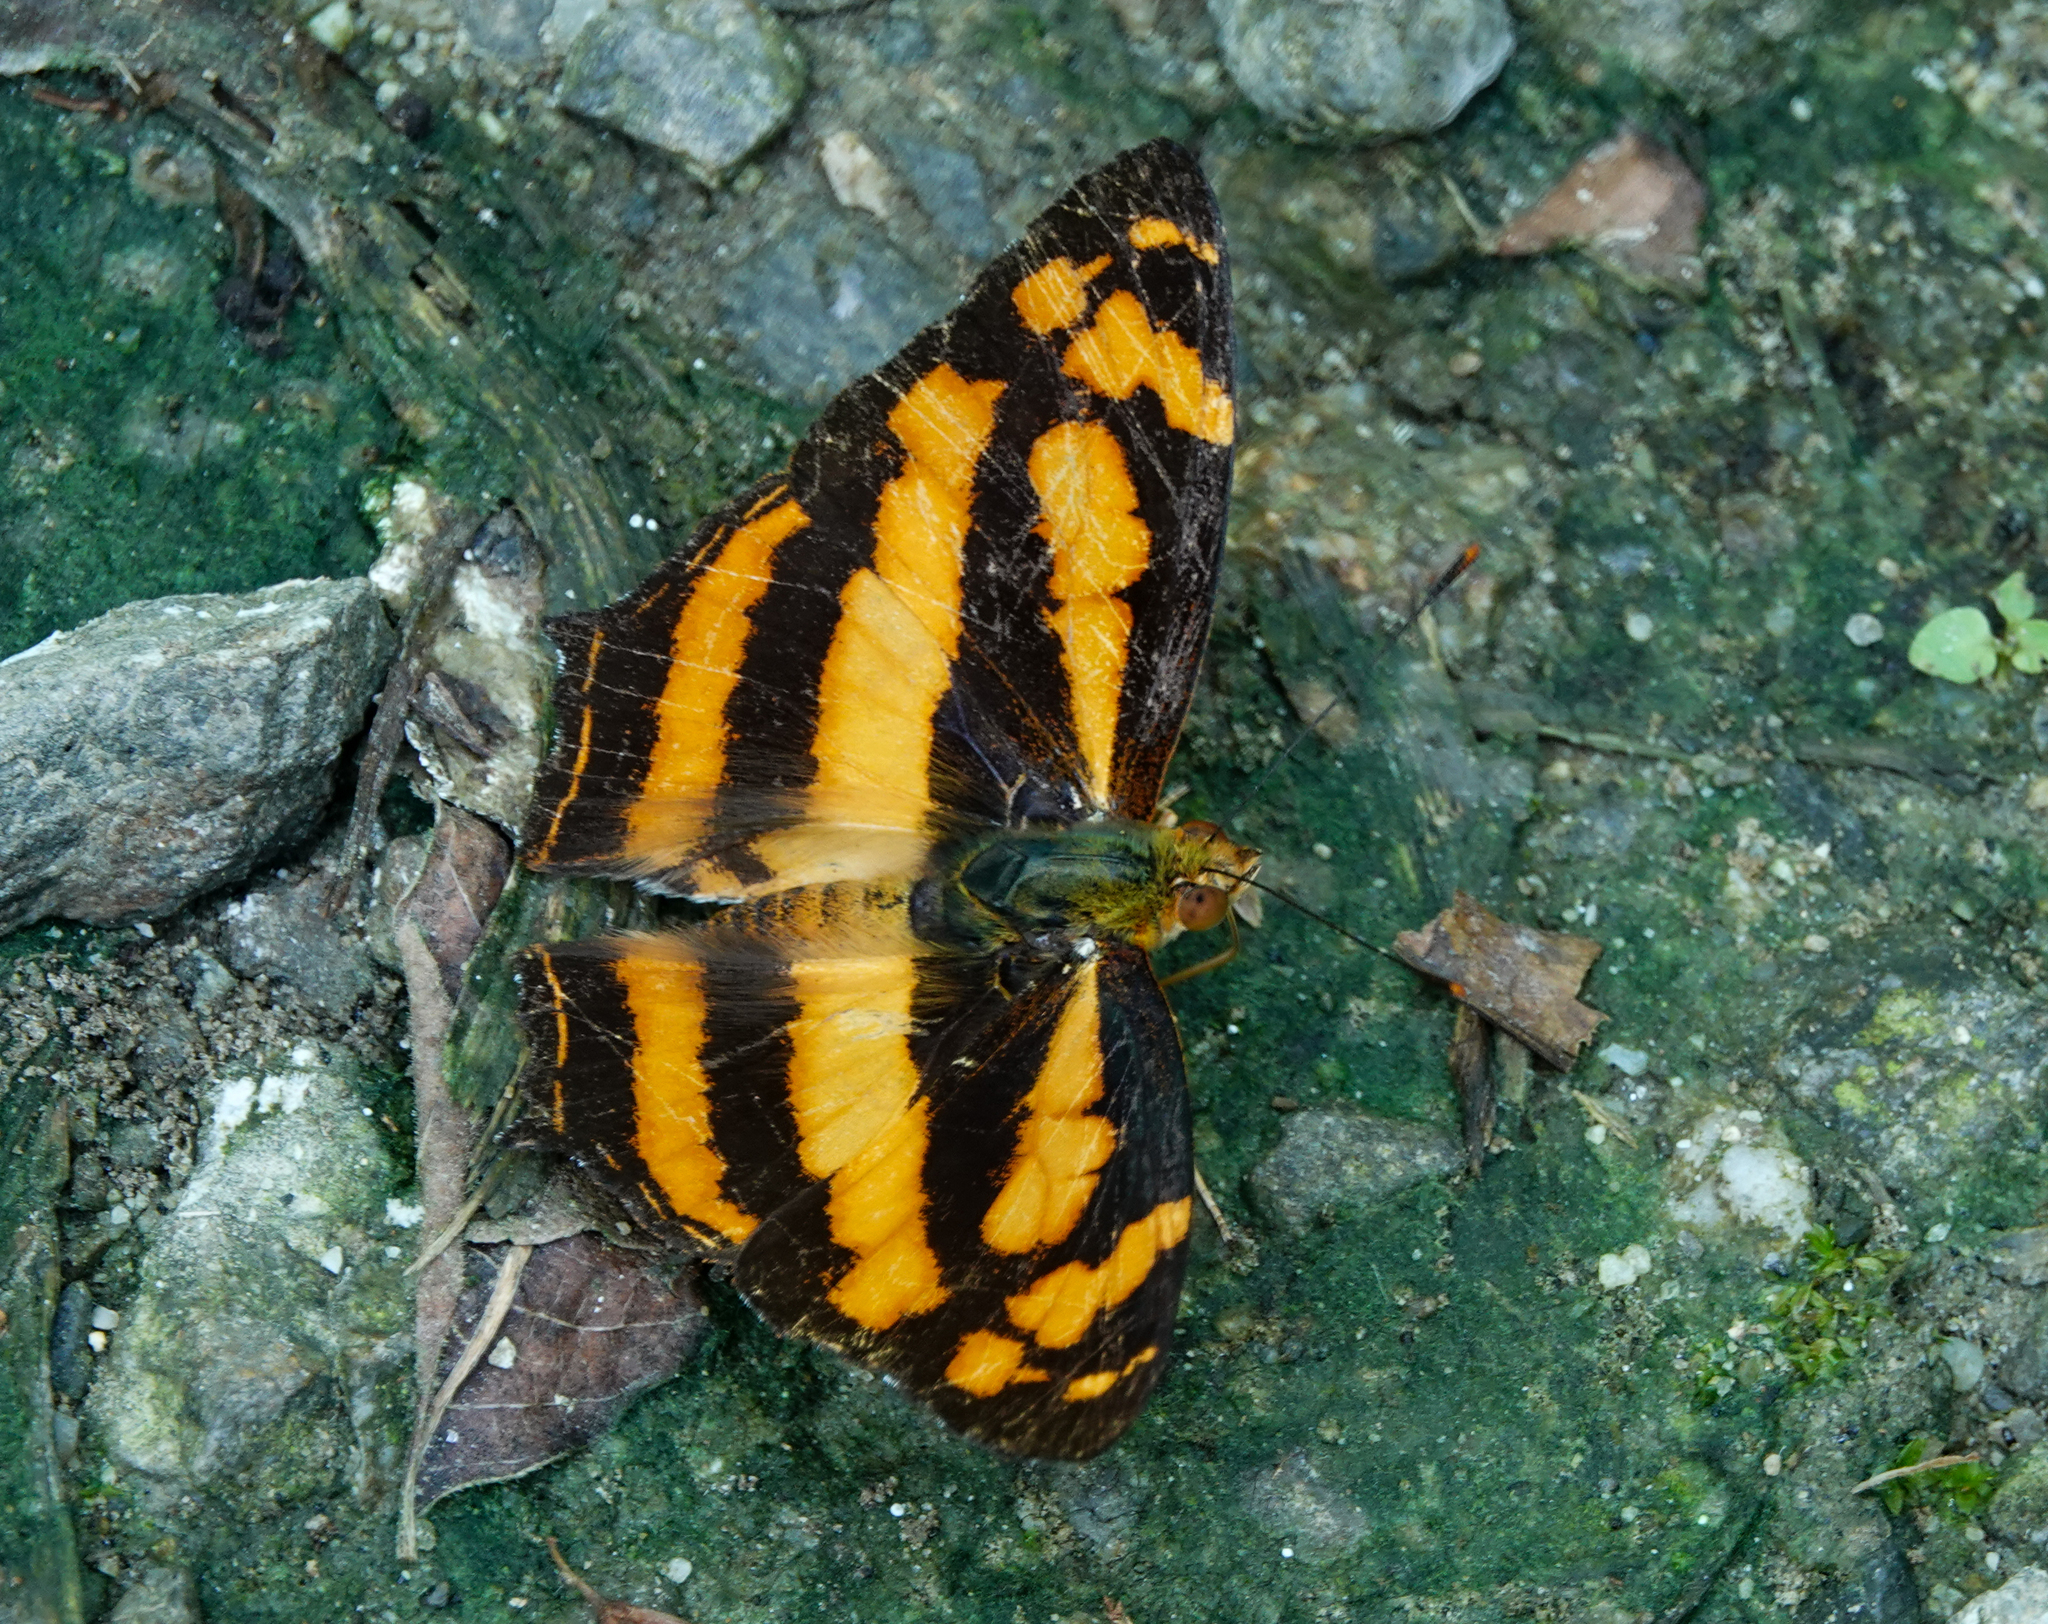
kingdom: Animalia
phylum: Arthropoda
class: Insecta
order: Lepidoptera
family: Nymphalidae
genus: Symbrenthia
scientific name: Symbrenthia hypselis
